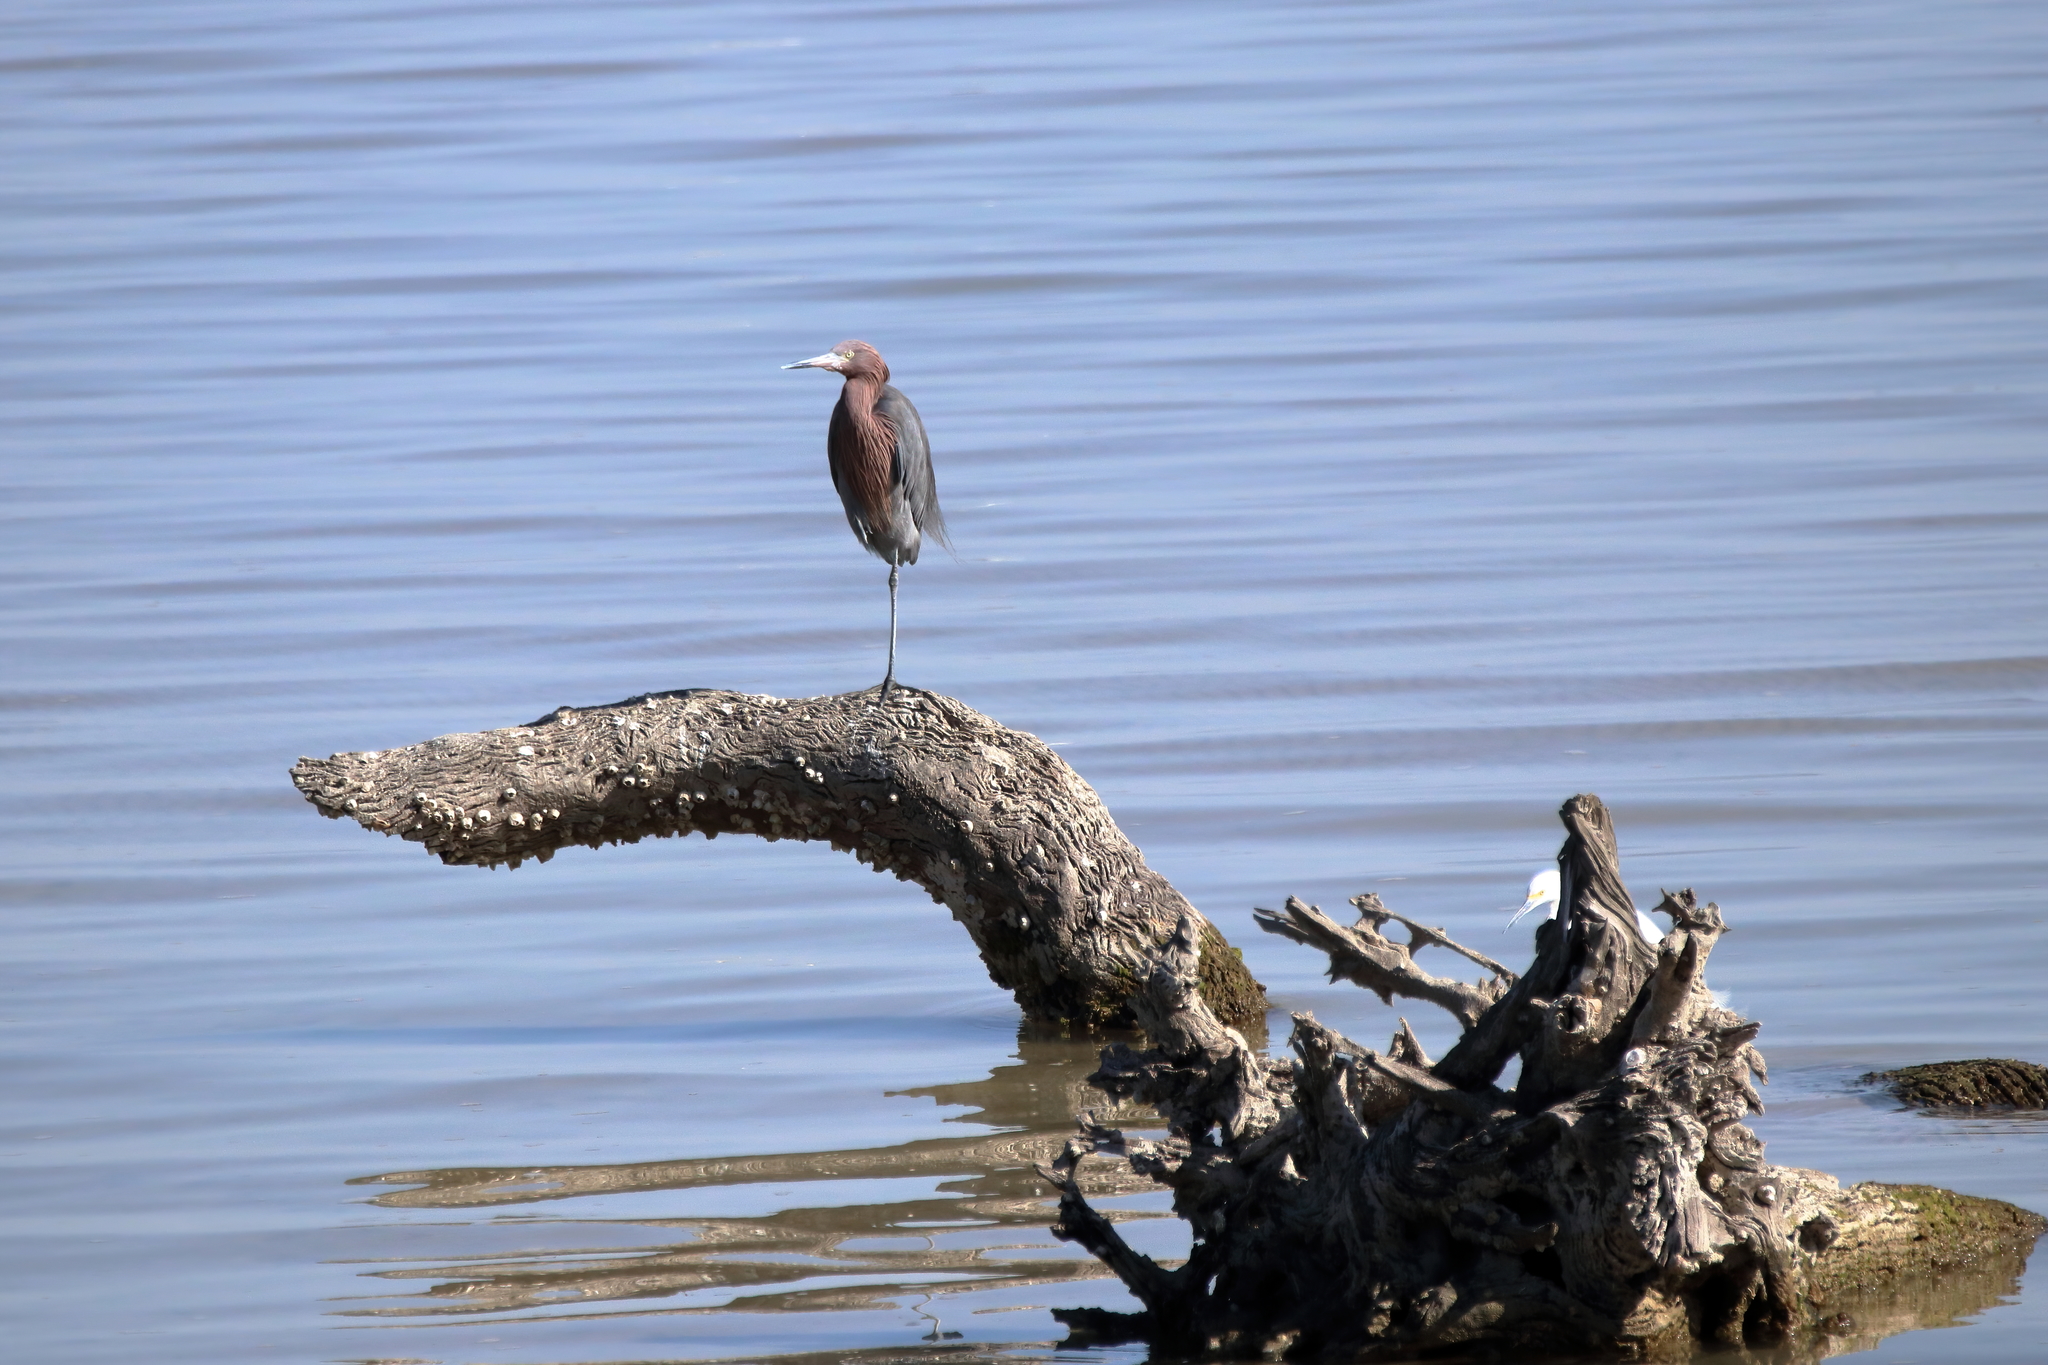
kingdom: Animalia
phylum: Chordata
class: Aves
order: Pelecaniformes
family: Ardeidae
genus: Egretta
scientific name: Egretta rufescens
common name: Reddish egret
